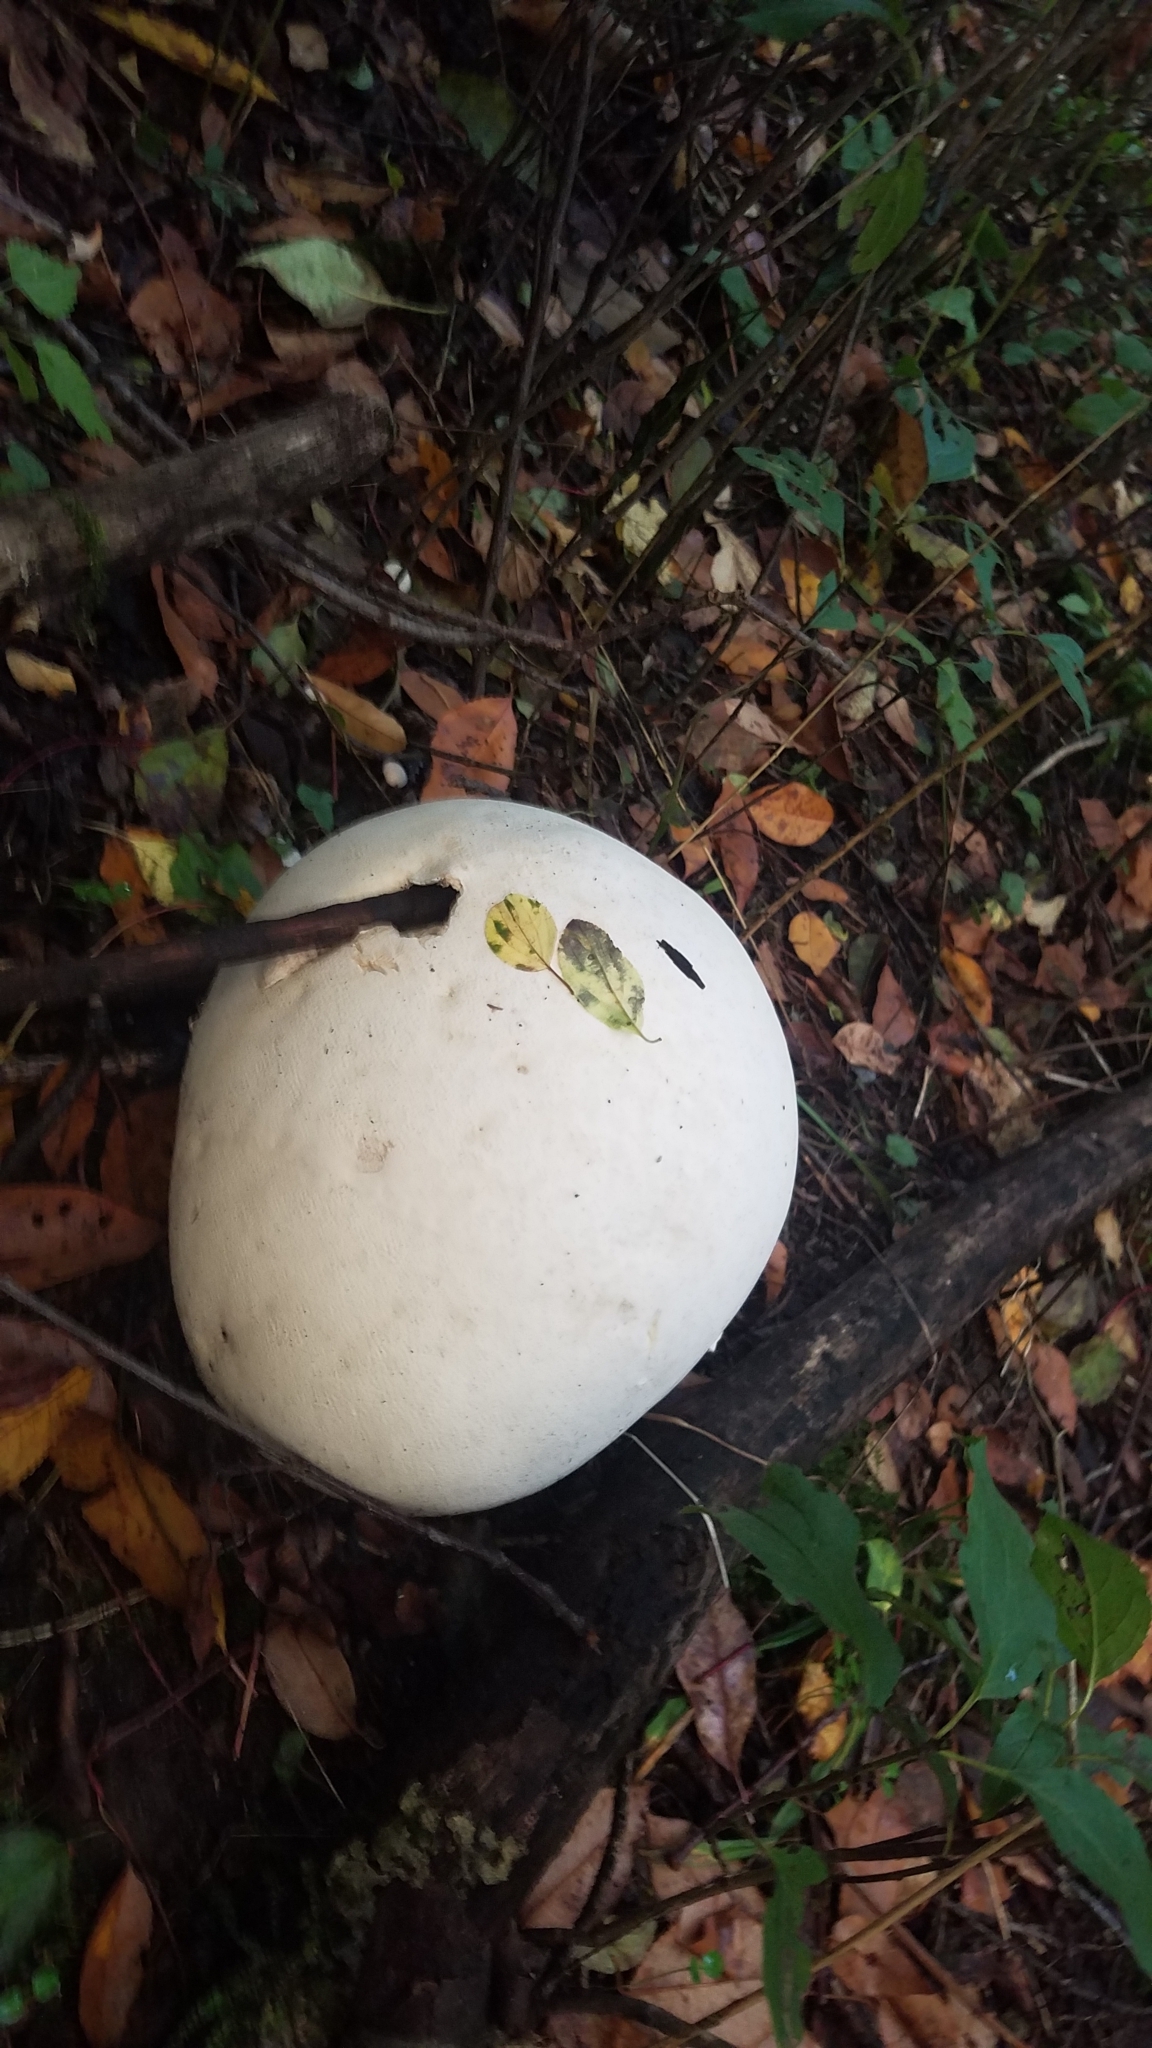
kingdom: Fungi
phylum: Basidiomycota
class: Agaricomycetes
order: Agaricales
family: Lycoperdaceae
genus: Calvatia
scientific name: Calvatia gigantea
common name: Giant puffball
